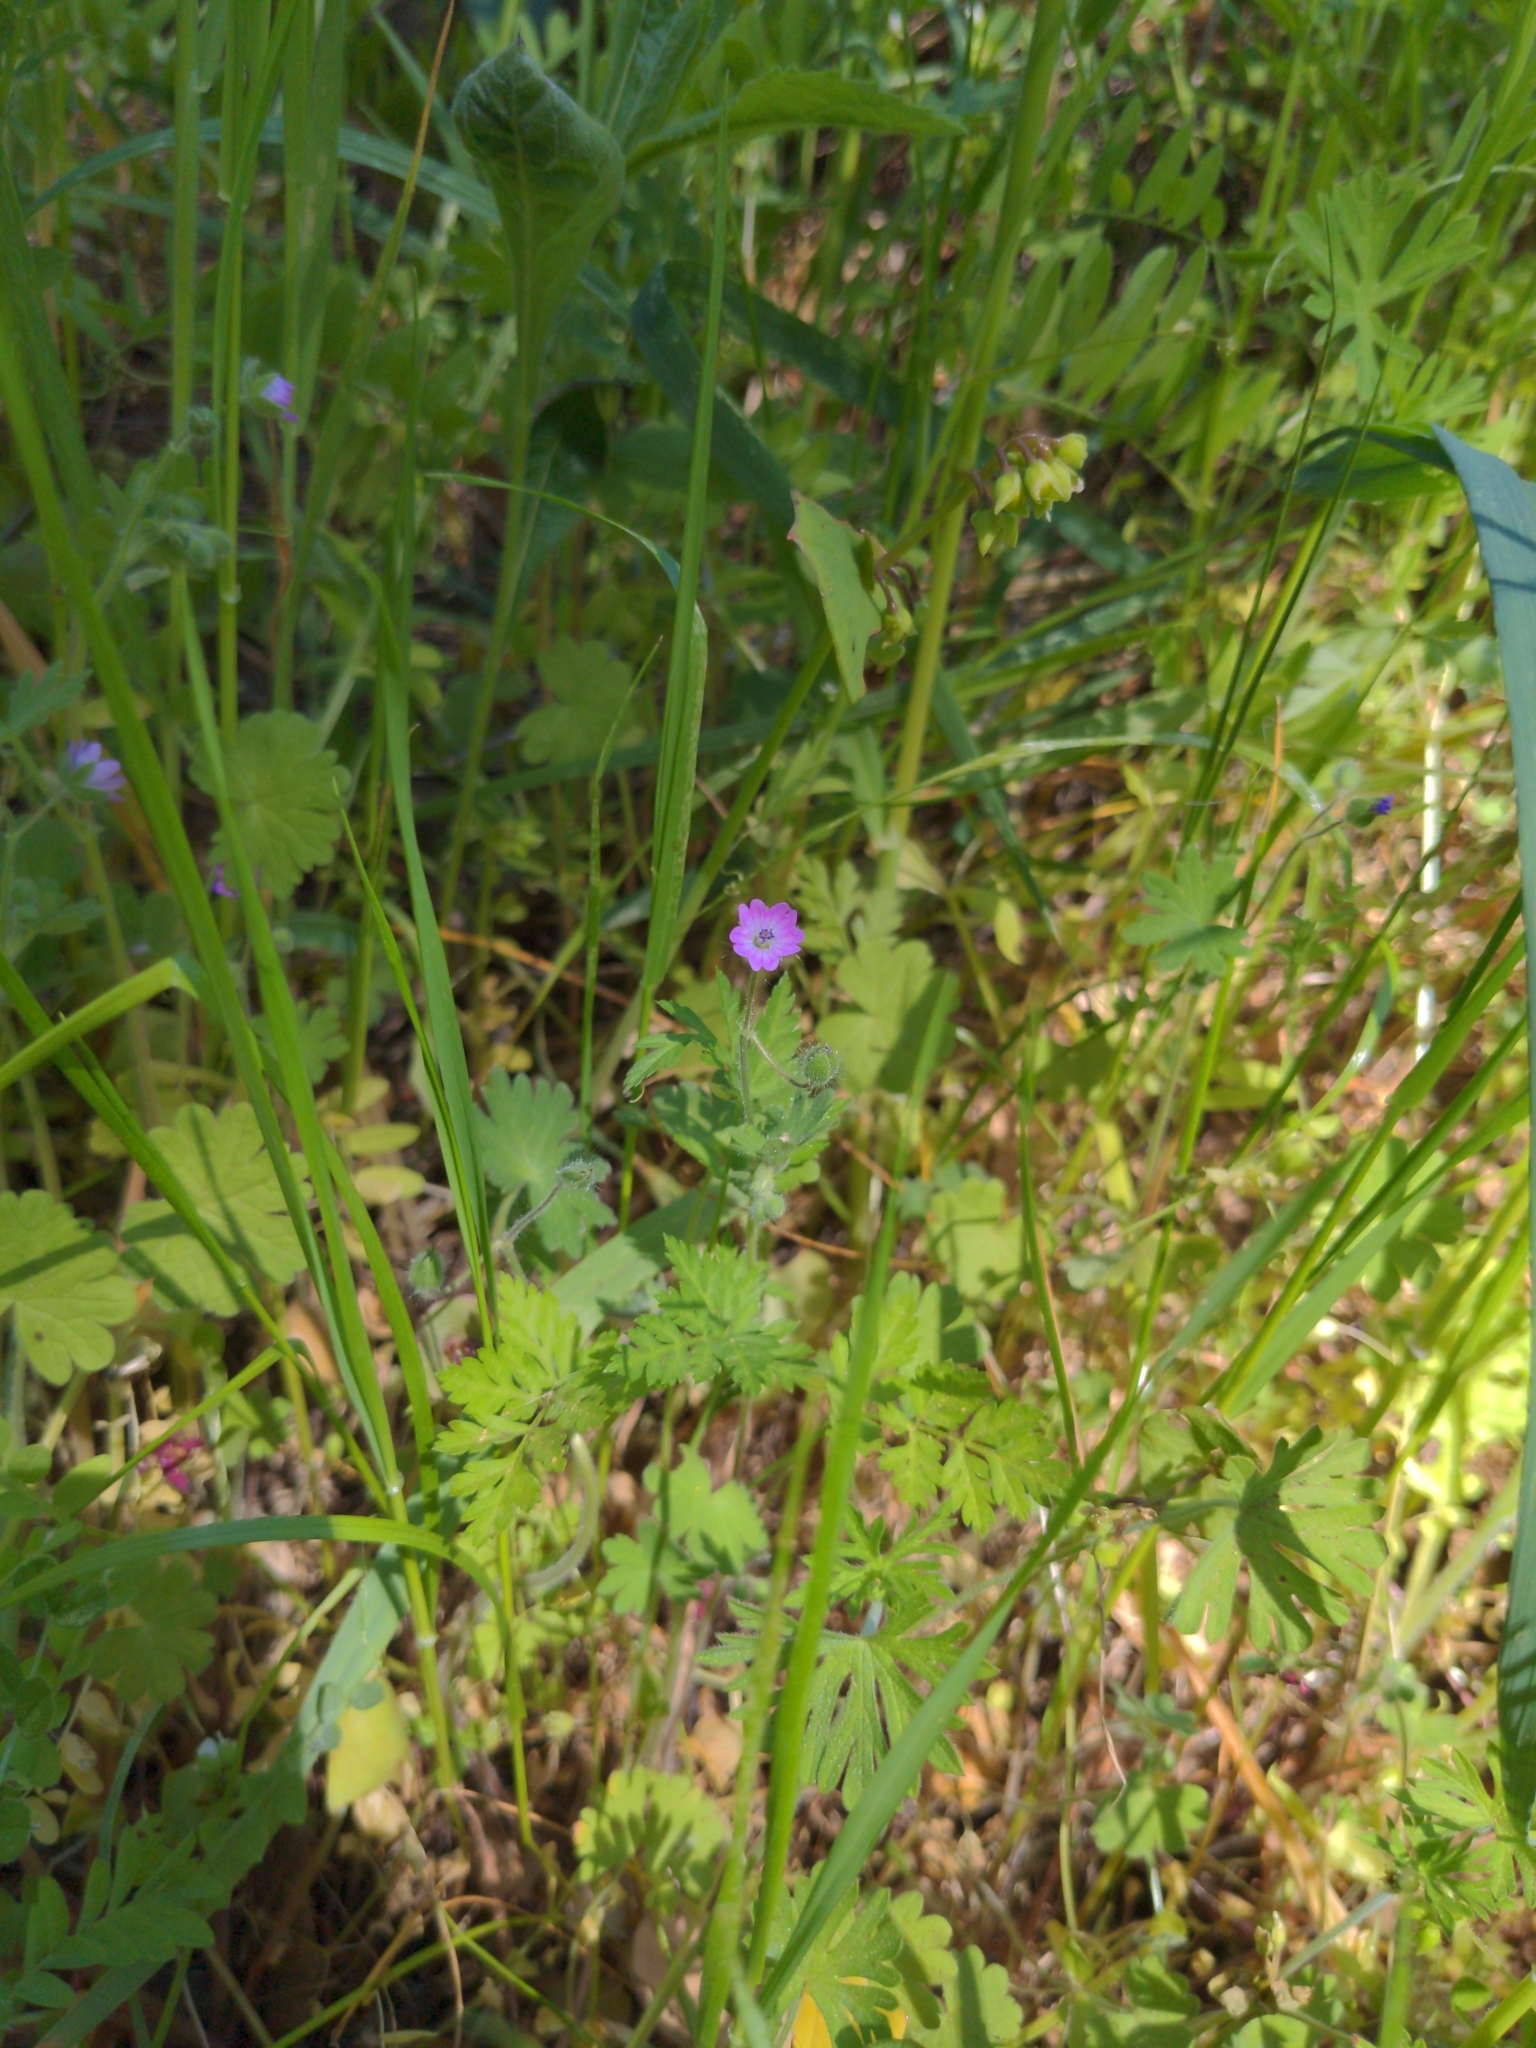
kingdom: Plantae
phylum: Tracheophyta
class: Magnoliopsida
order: Geraniales
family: Geraniaceae
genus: Geranium
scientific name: Geranium molle
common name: Dove's-foot crane's-bill
